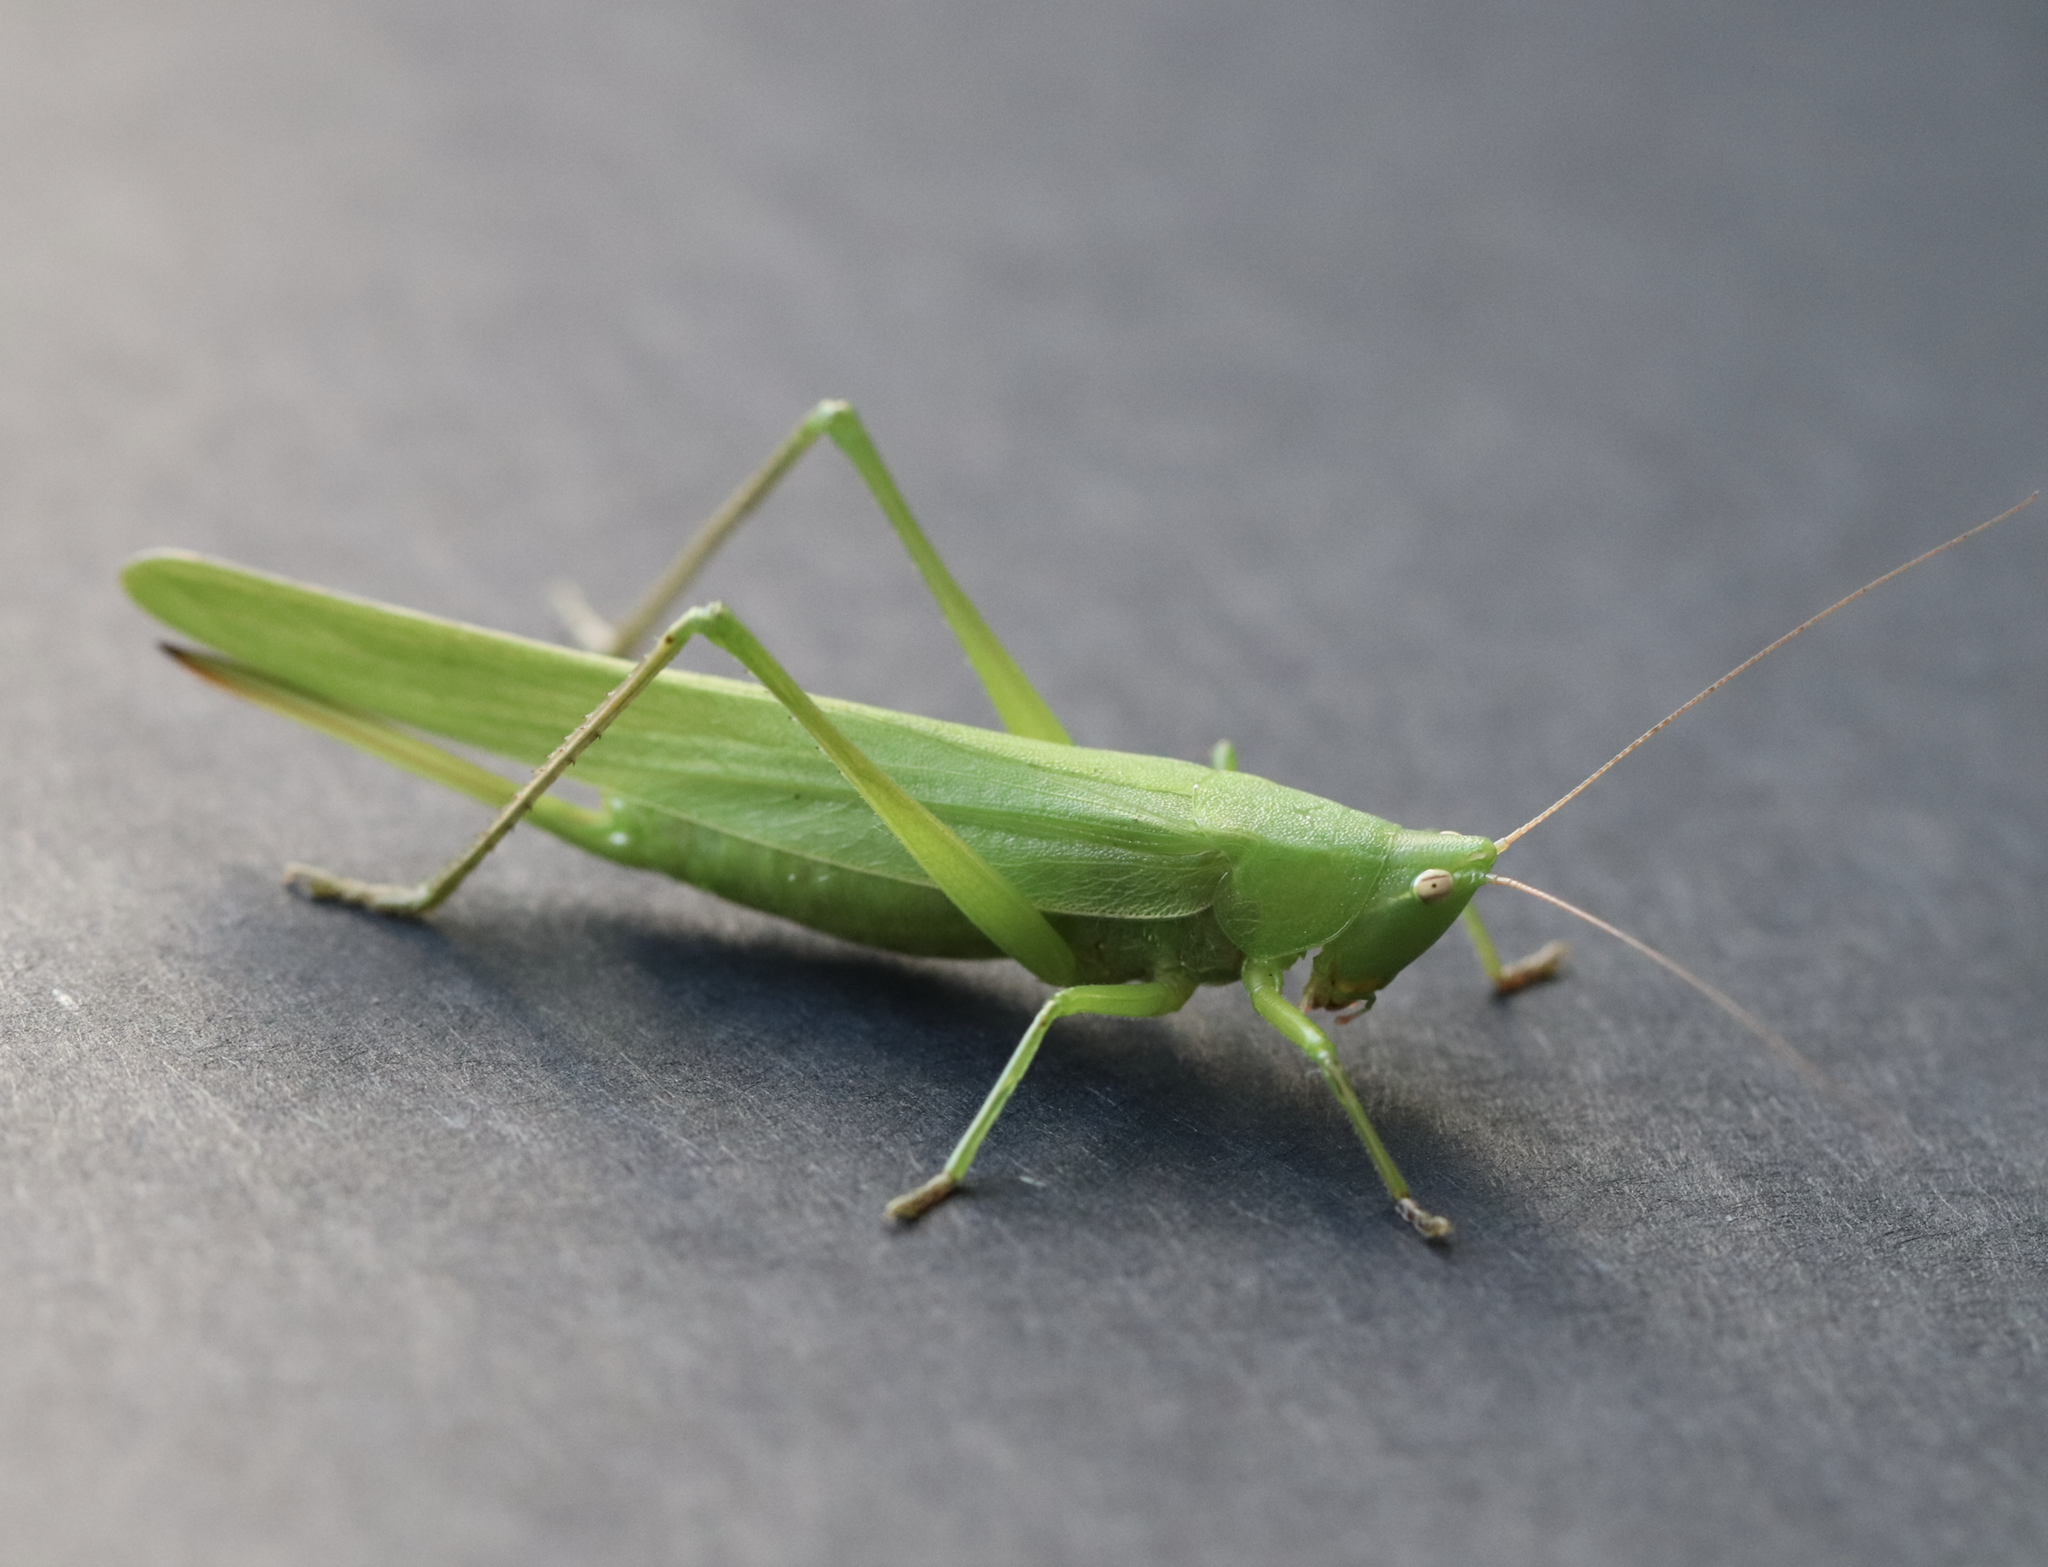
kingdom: Animalia
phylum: Arthropoda
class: Insecta
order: Orthoptera
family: Tettigoniidae
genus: Ruspolia
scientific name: Ruspolia nitidula
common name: Large conehead
